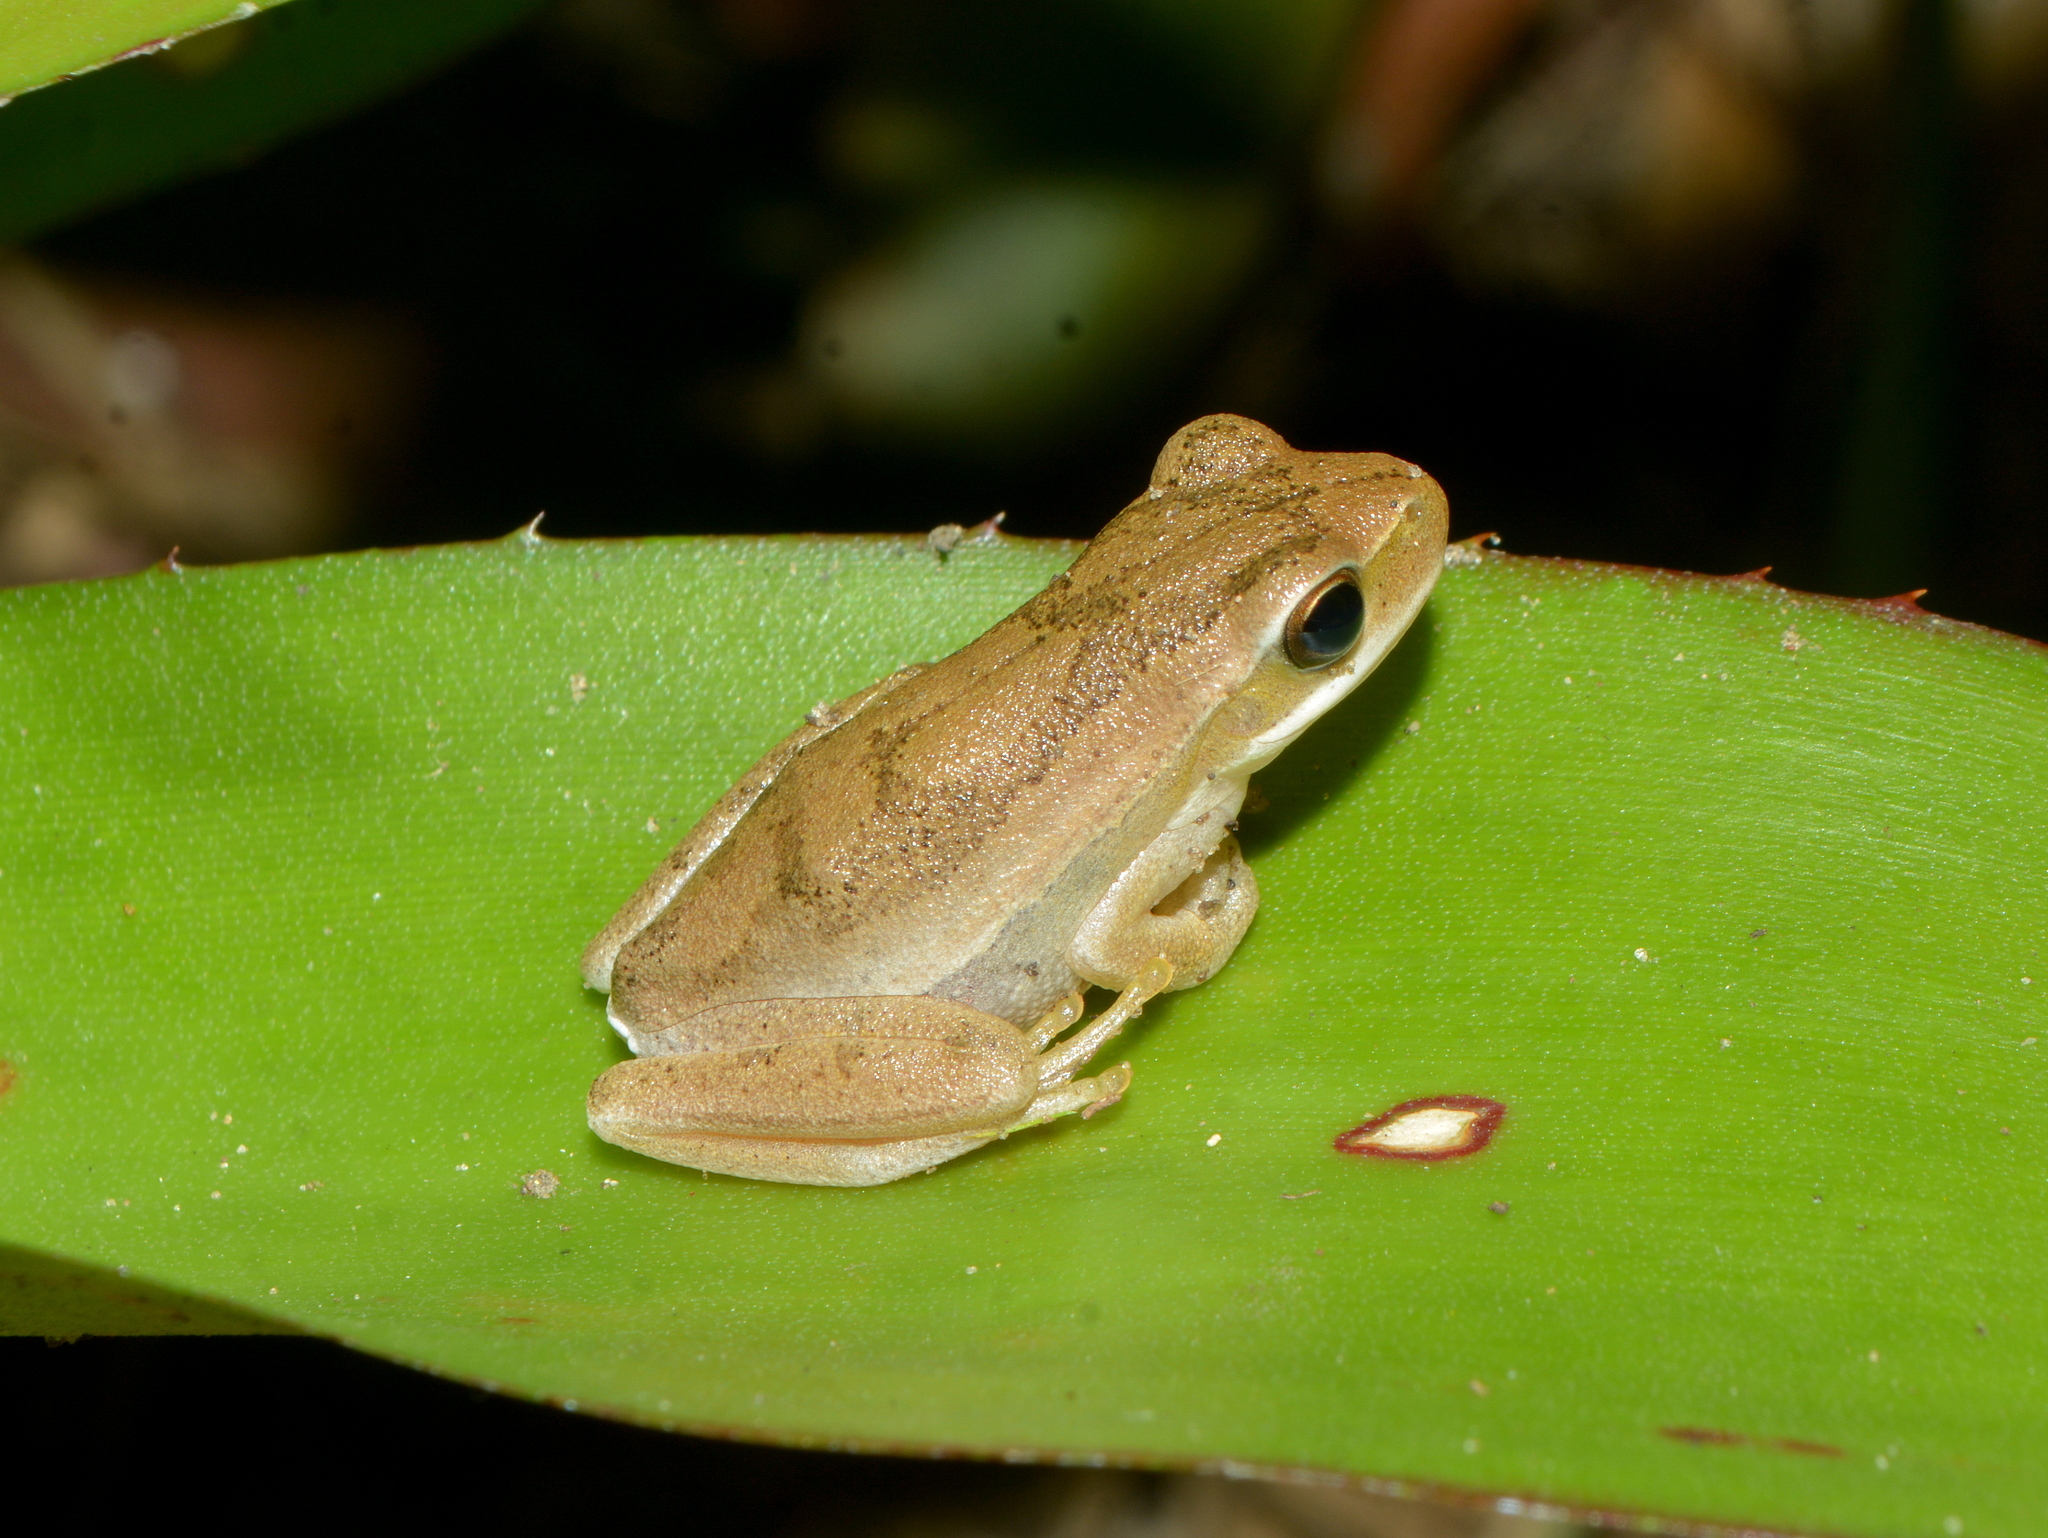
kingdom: Animalia
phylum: Chordata
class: Amphibia
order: Anura
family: Hylidae
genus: Boana
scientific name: Boana pulchella
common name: Montevideo treefrog
